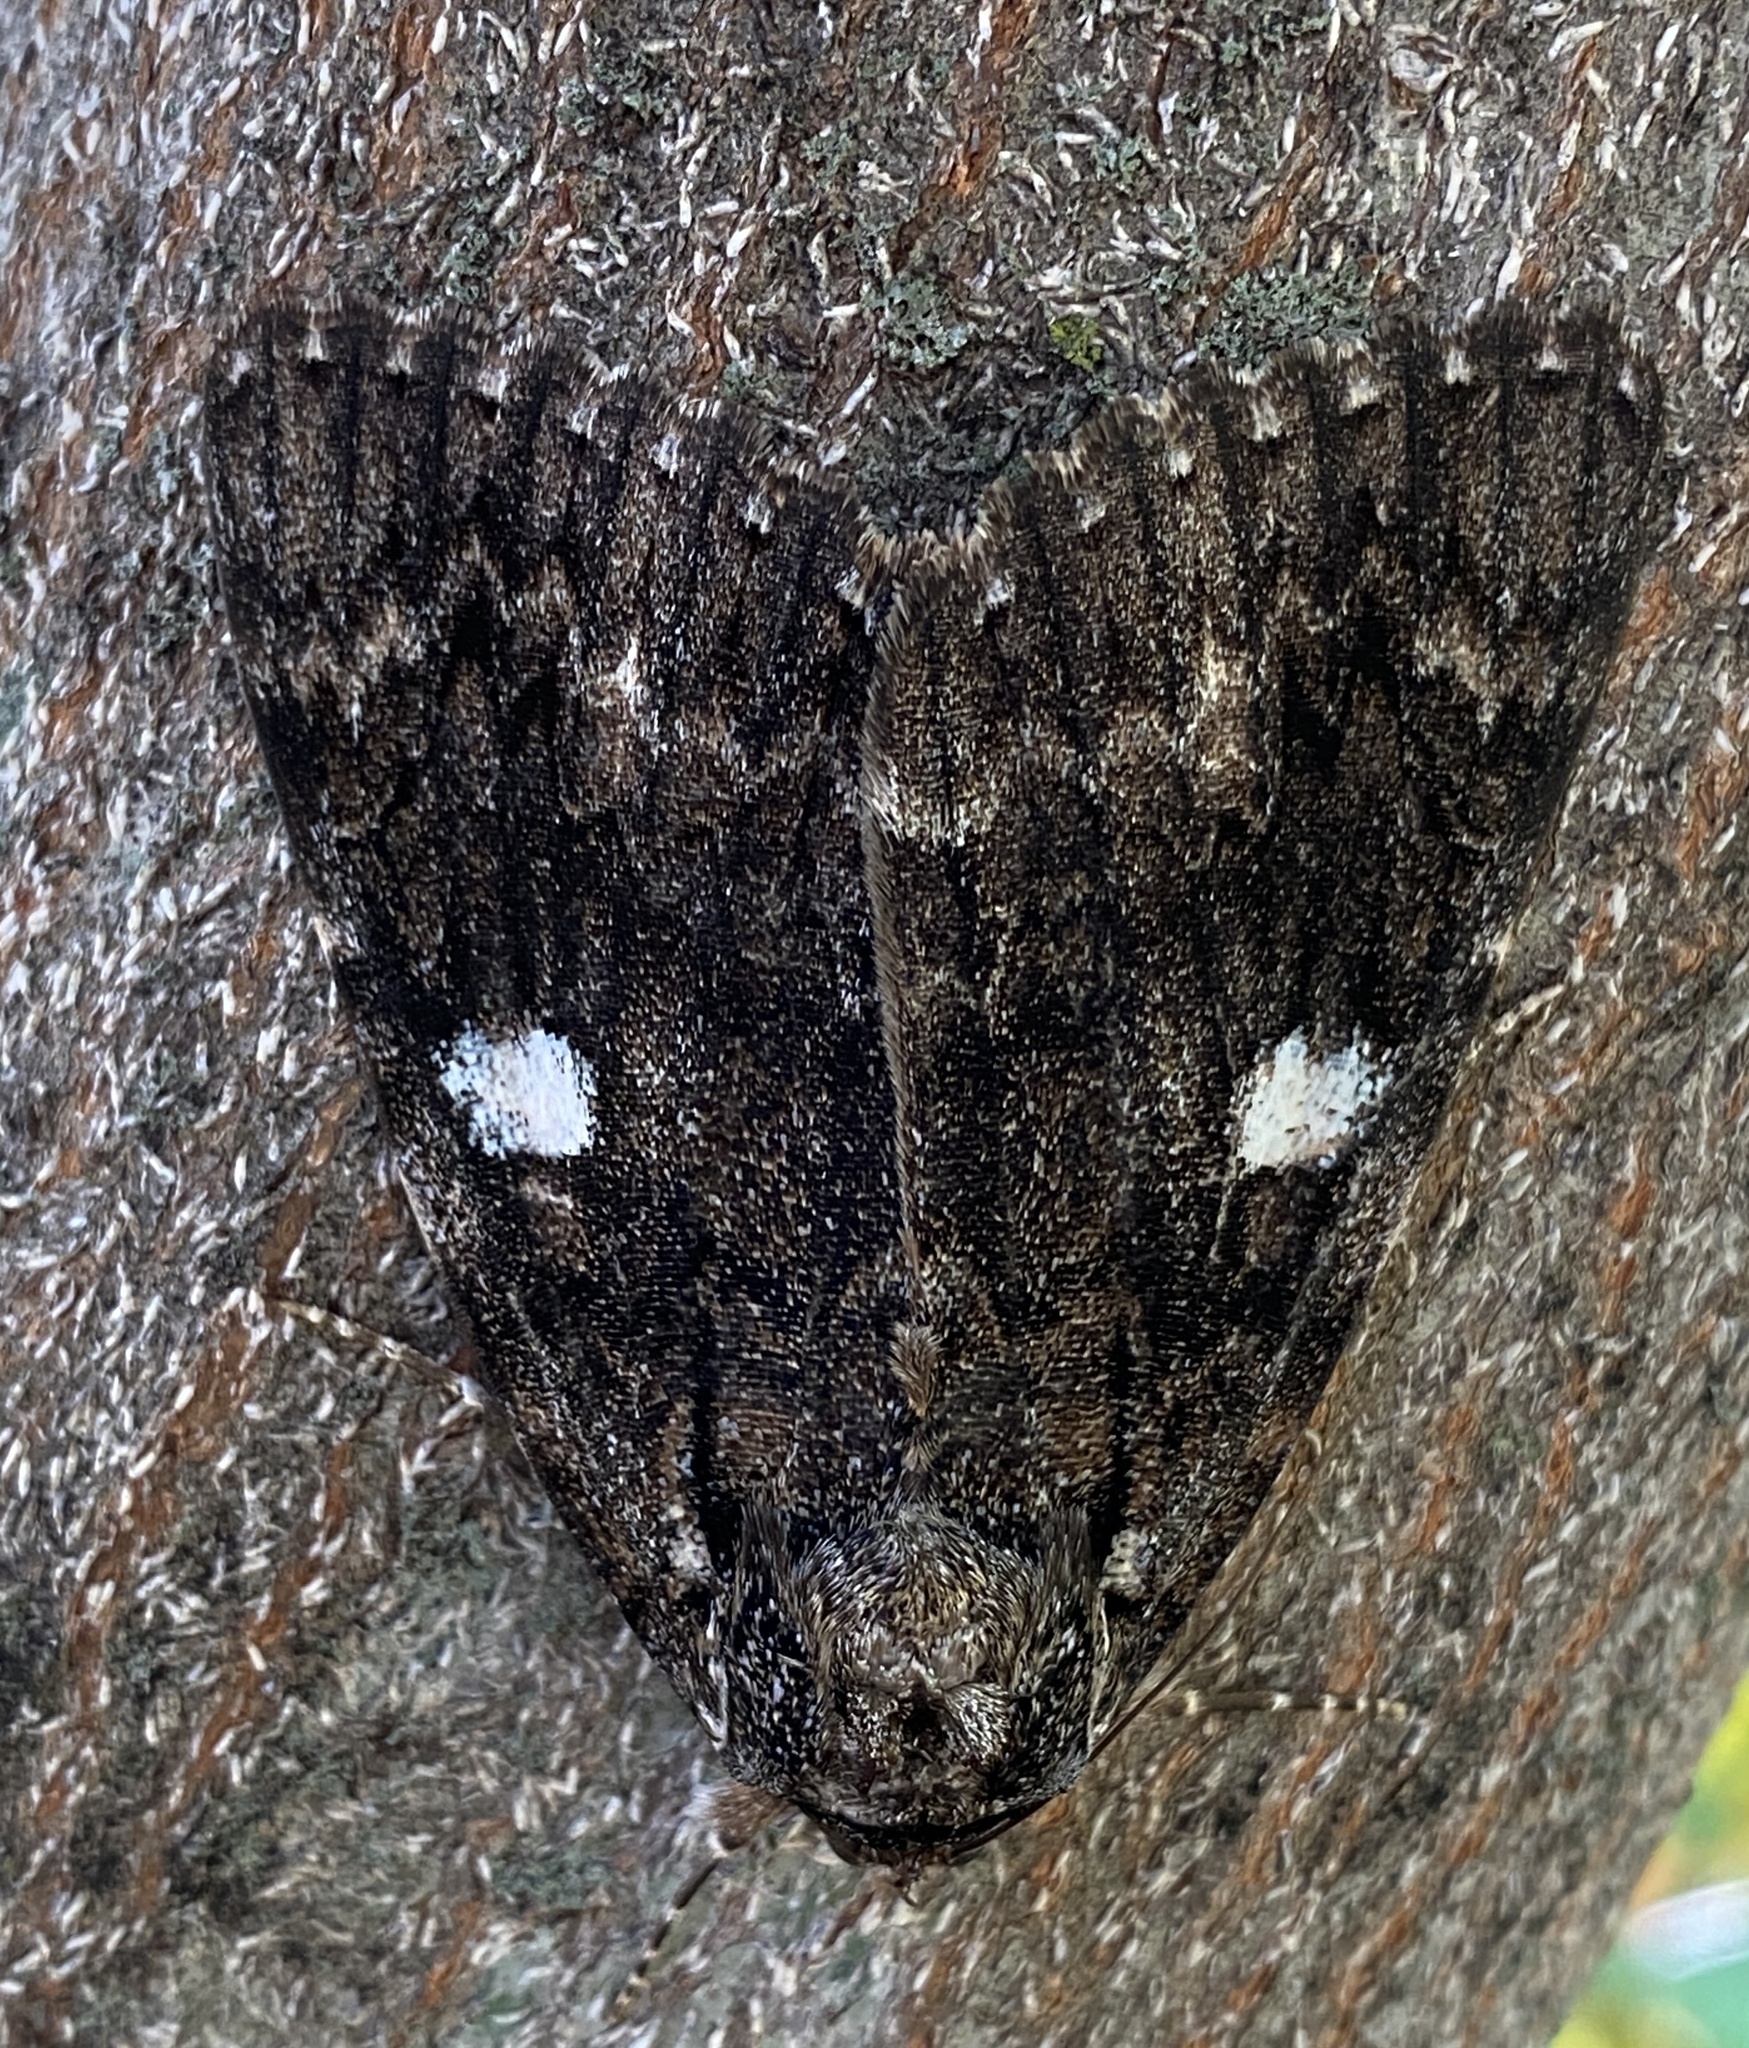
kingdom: Animalia
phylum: Arthropoda
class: Insecta
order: Lepidoptera
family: Erebidae
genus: Catocala
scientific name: Catocala ilia
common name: Ilia underwing
